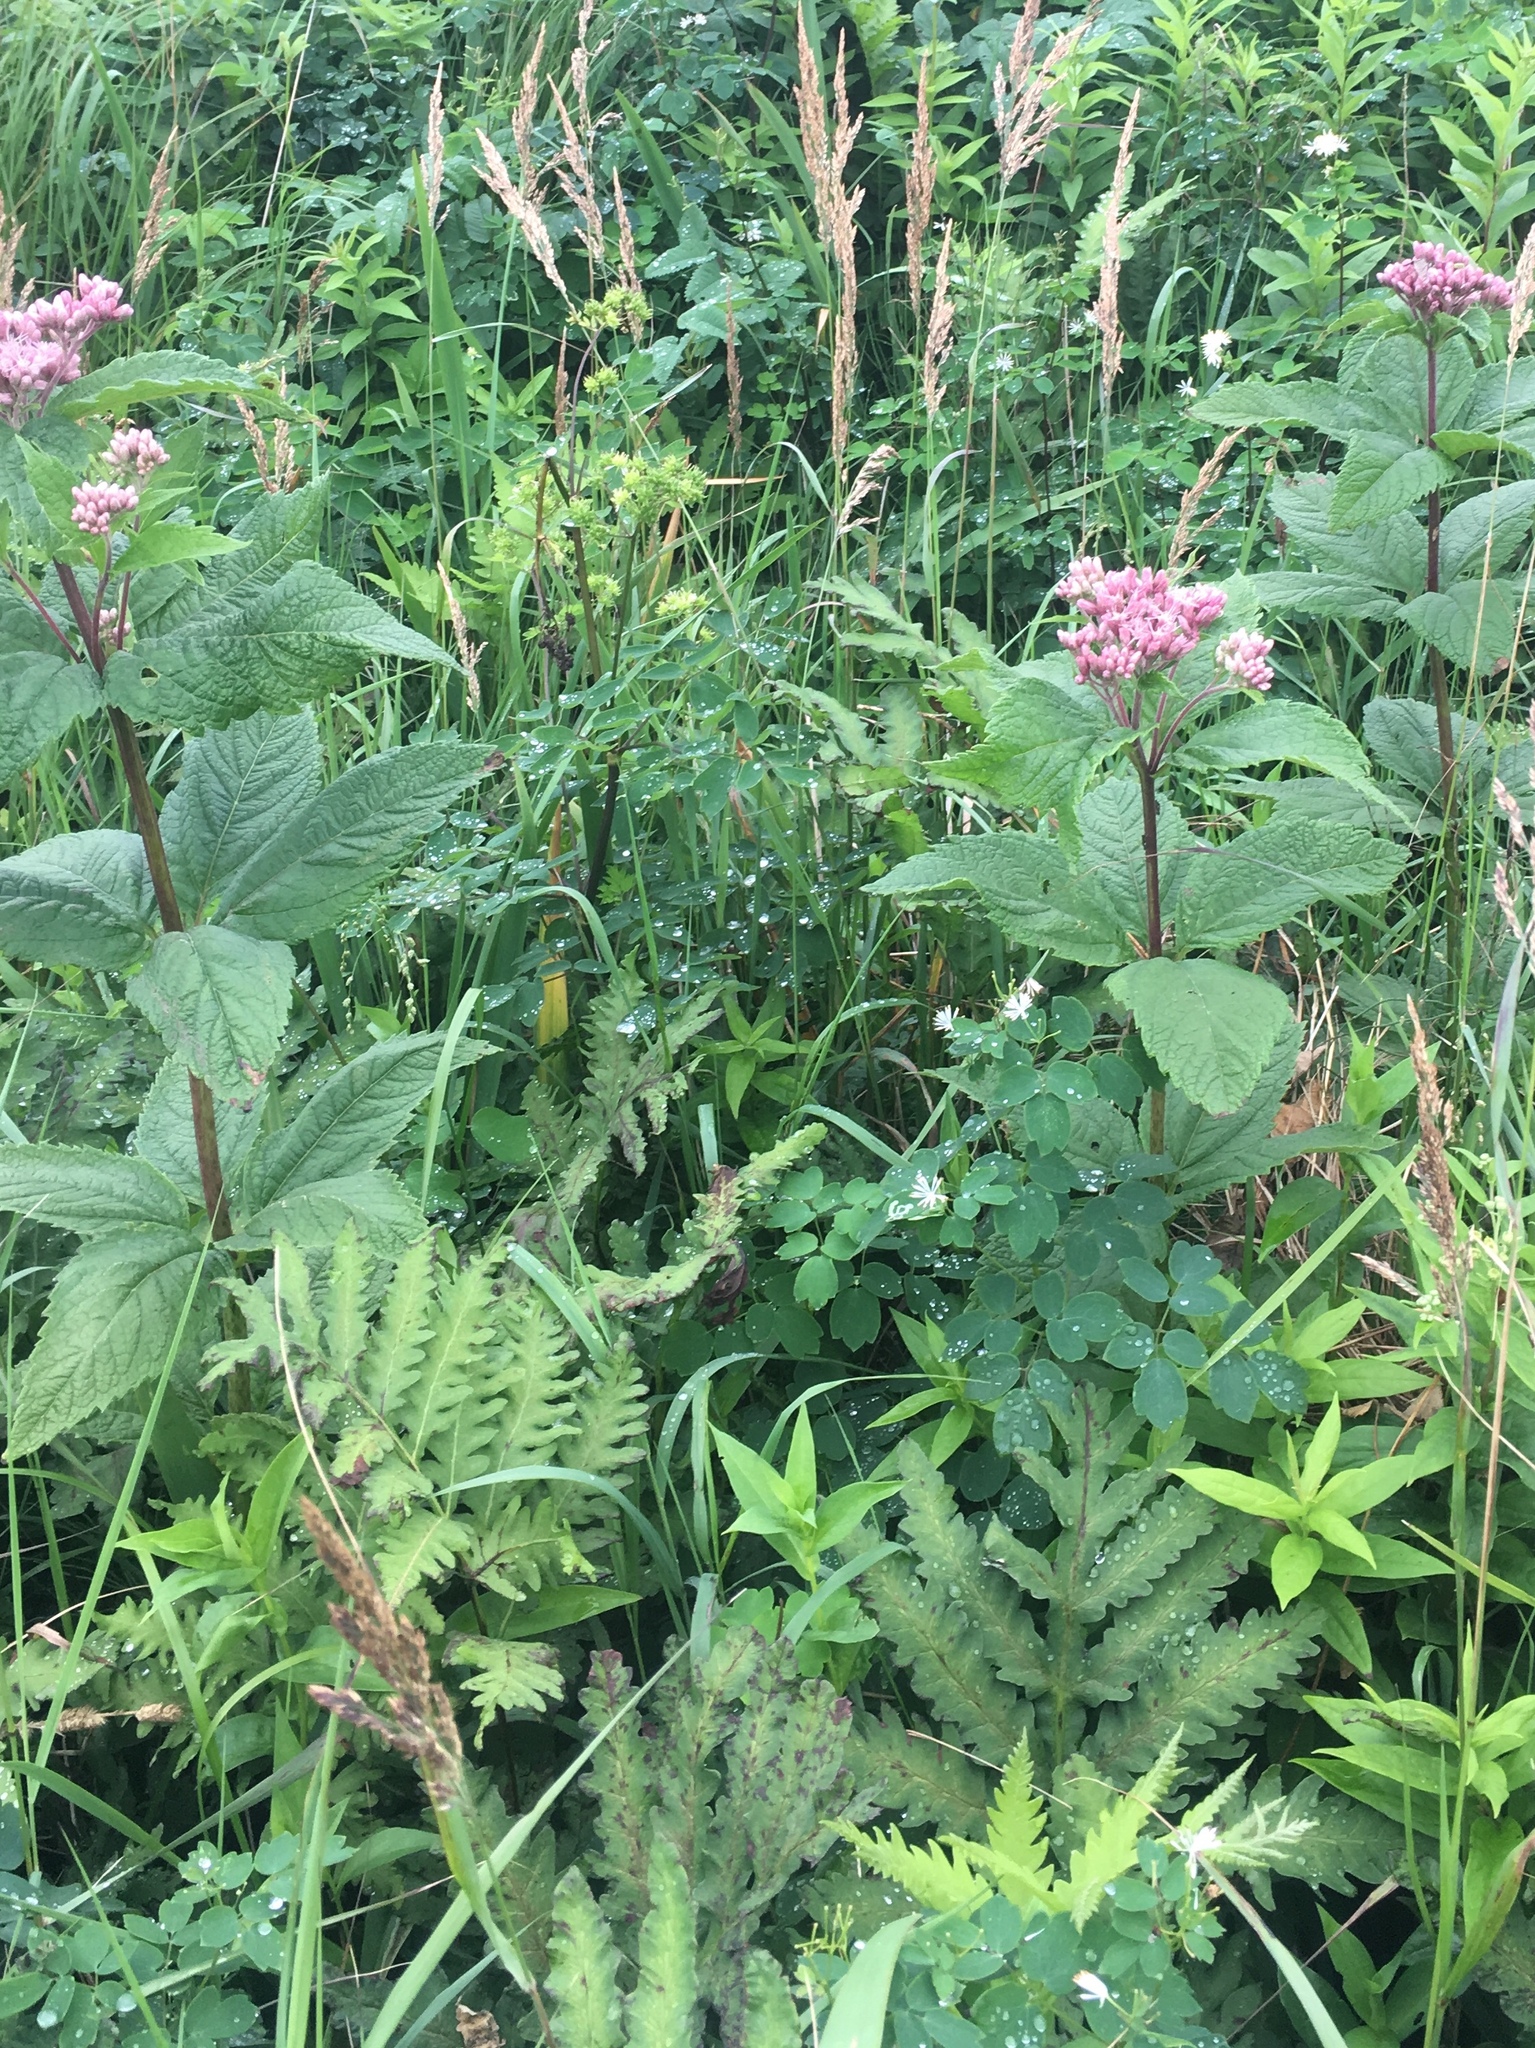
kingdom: Plantae
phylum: Tracheophyta
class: Magnoliopsida
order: Asterales
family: Asteraceae
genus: Eutrochium
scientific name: Eutrochium maculatum
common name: Spotted joe pye weed
